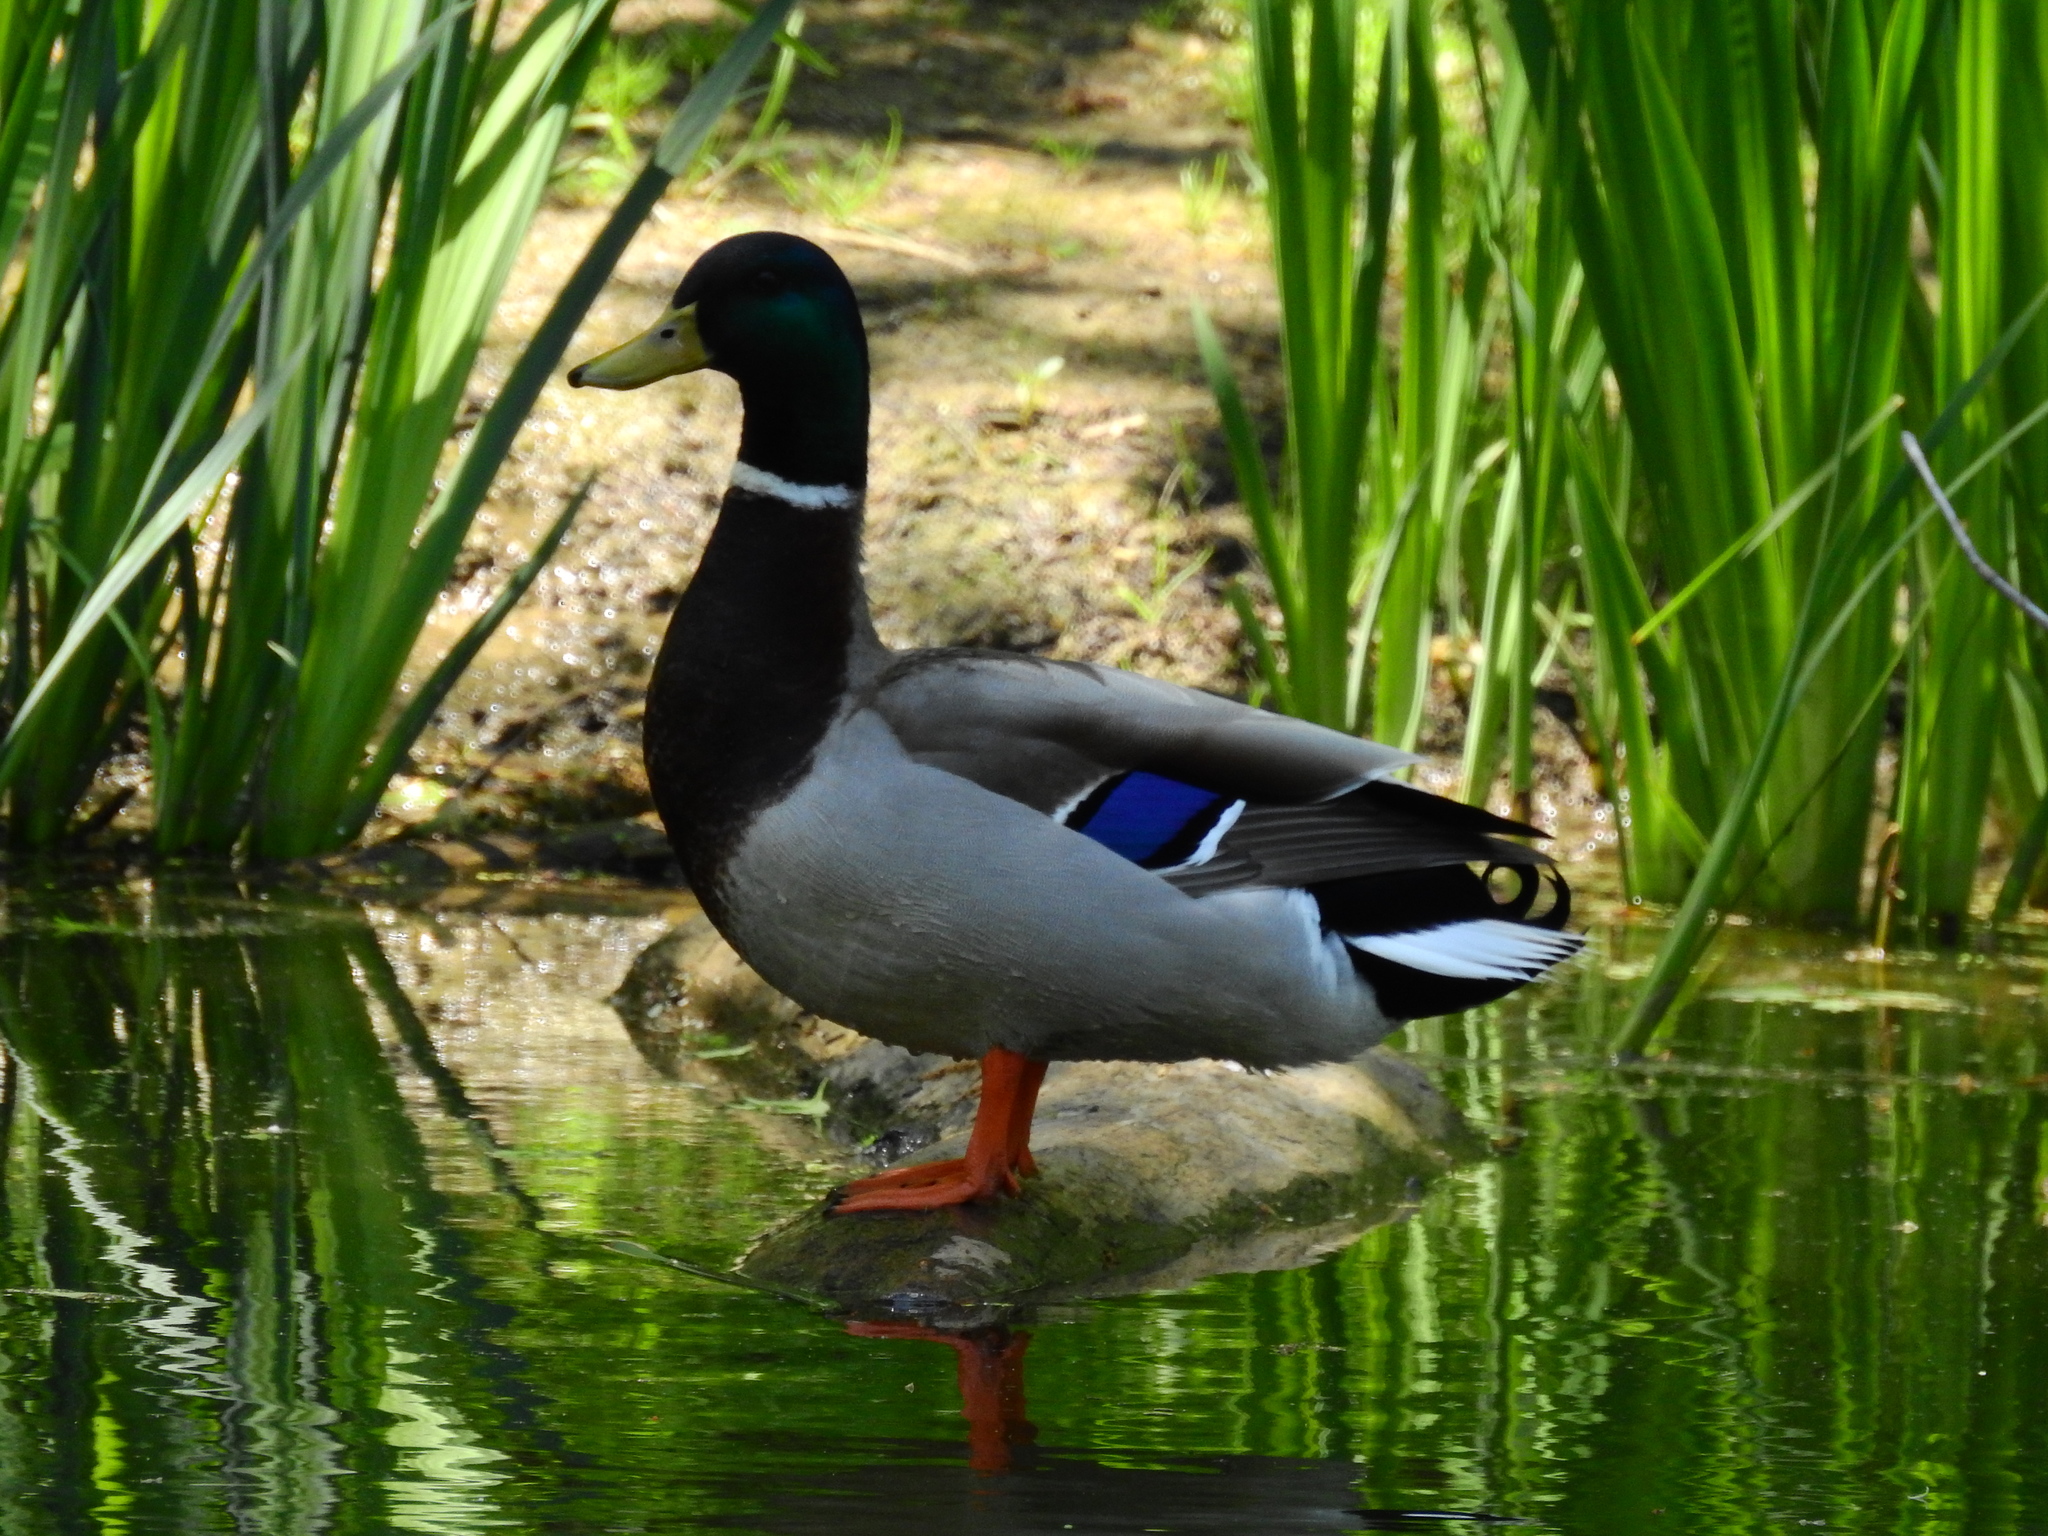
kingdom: Animalia
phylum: Chordata
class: Aves
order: Anseriformes
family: Anatidae
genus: Anas
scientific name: Anas platyrhynchos
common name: Mallard
